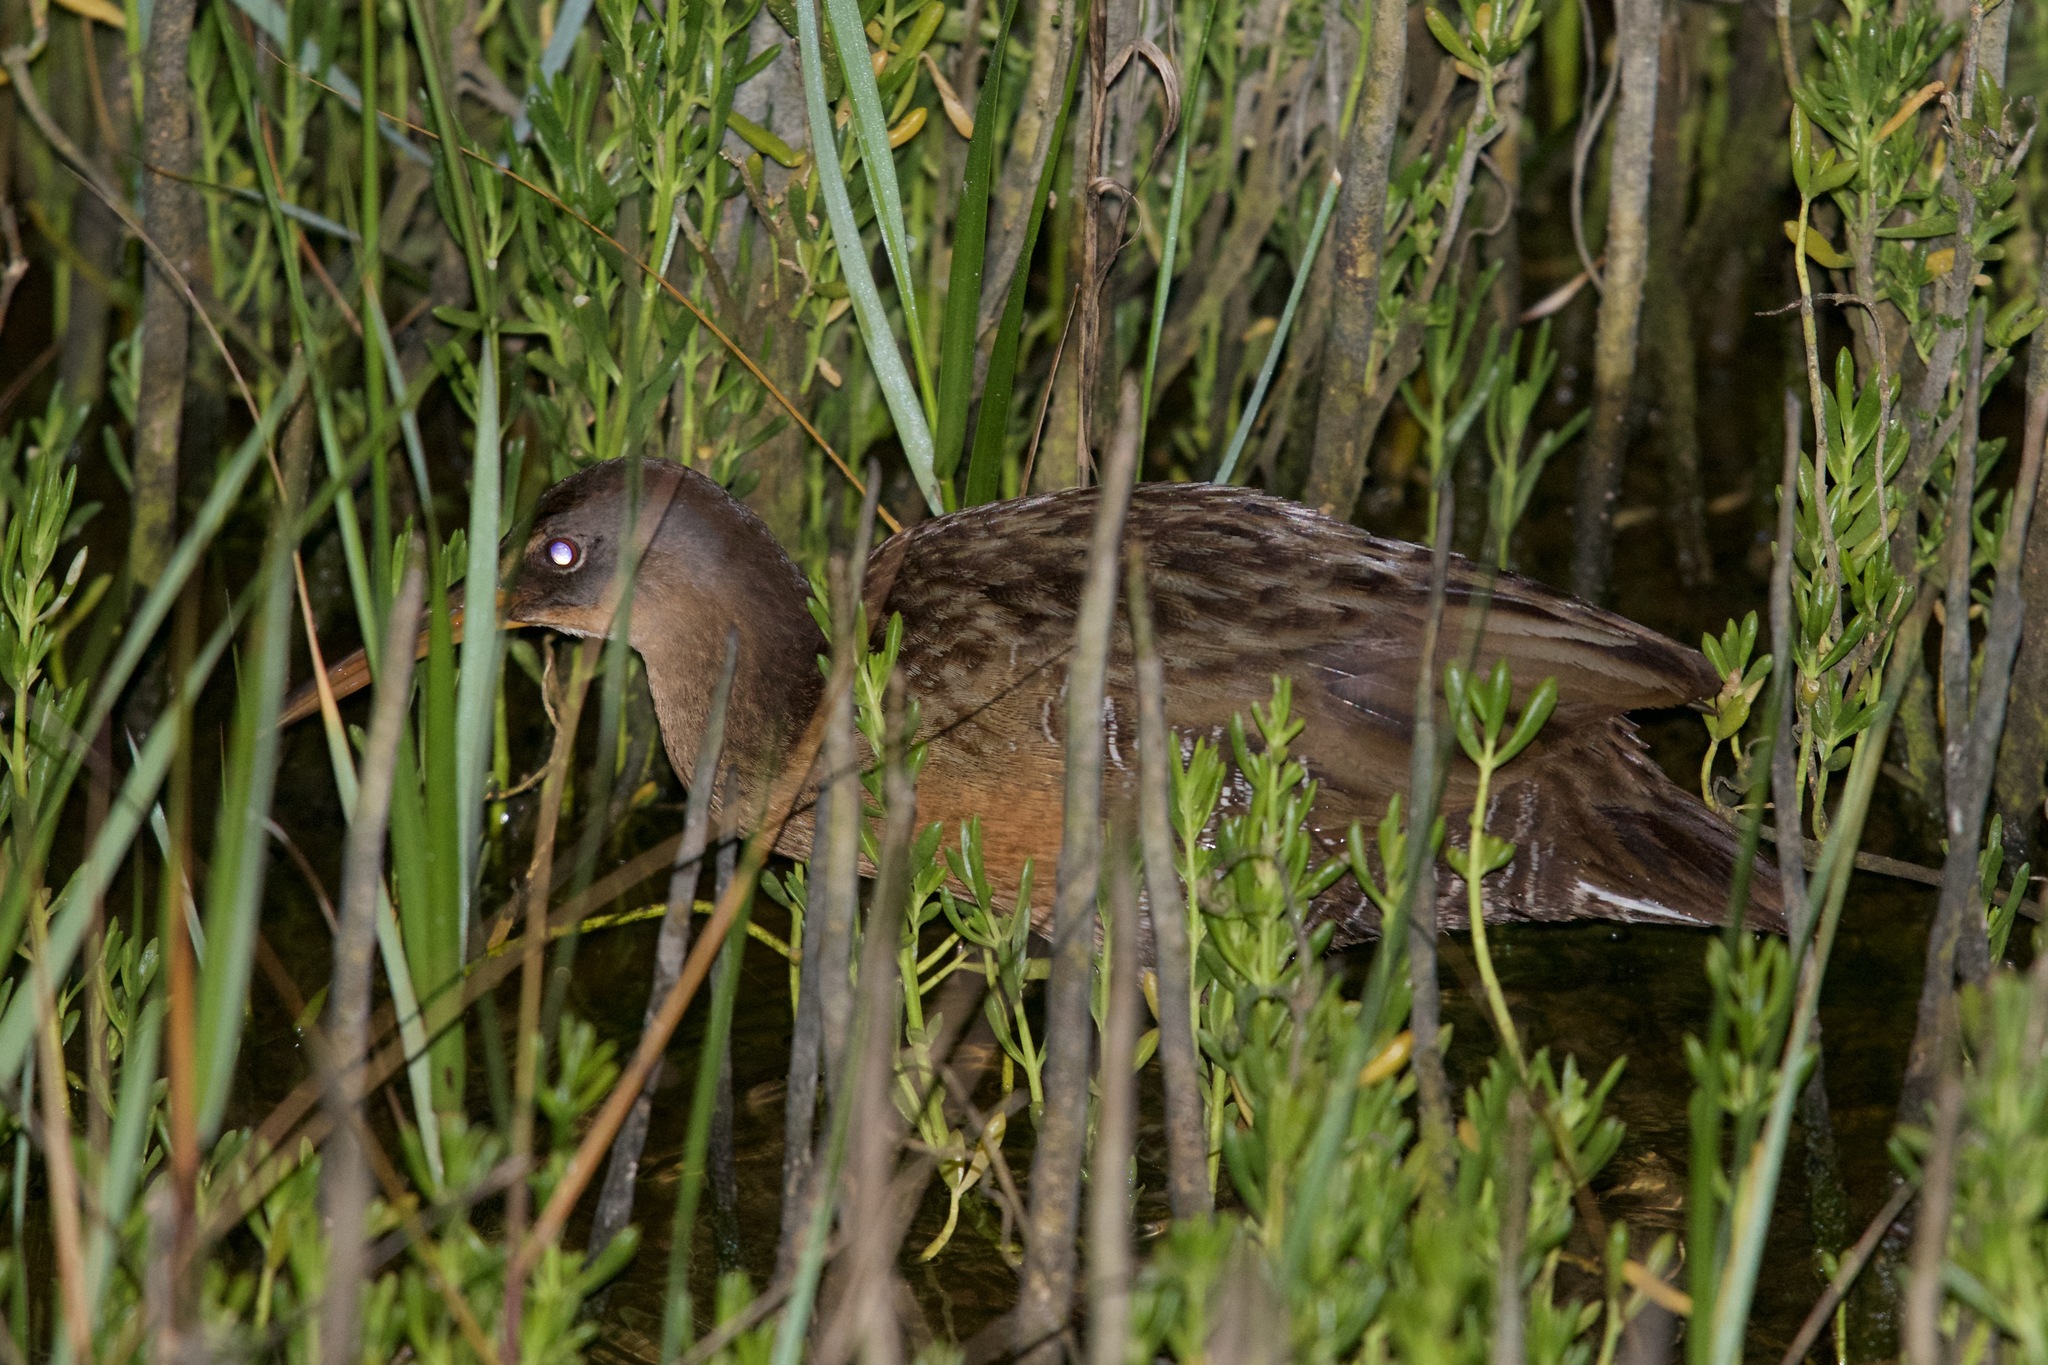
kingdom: Animalia
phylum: Chordata
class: Aves
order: Gruiformes
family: Rallidae
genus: Rallus
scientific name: Rallus crepitans
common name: Clapper rail
